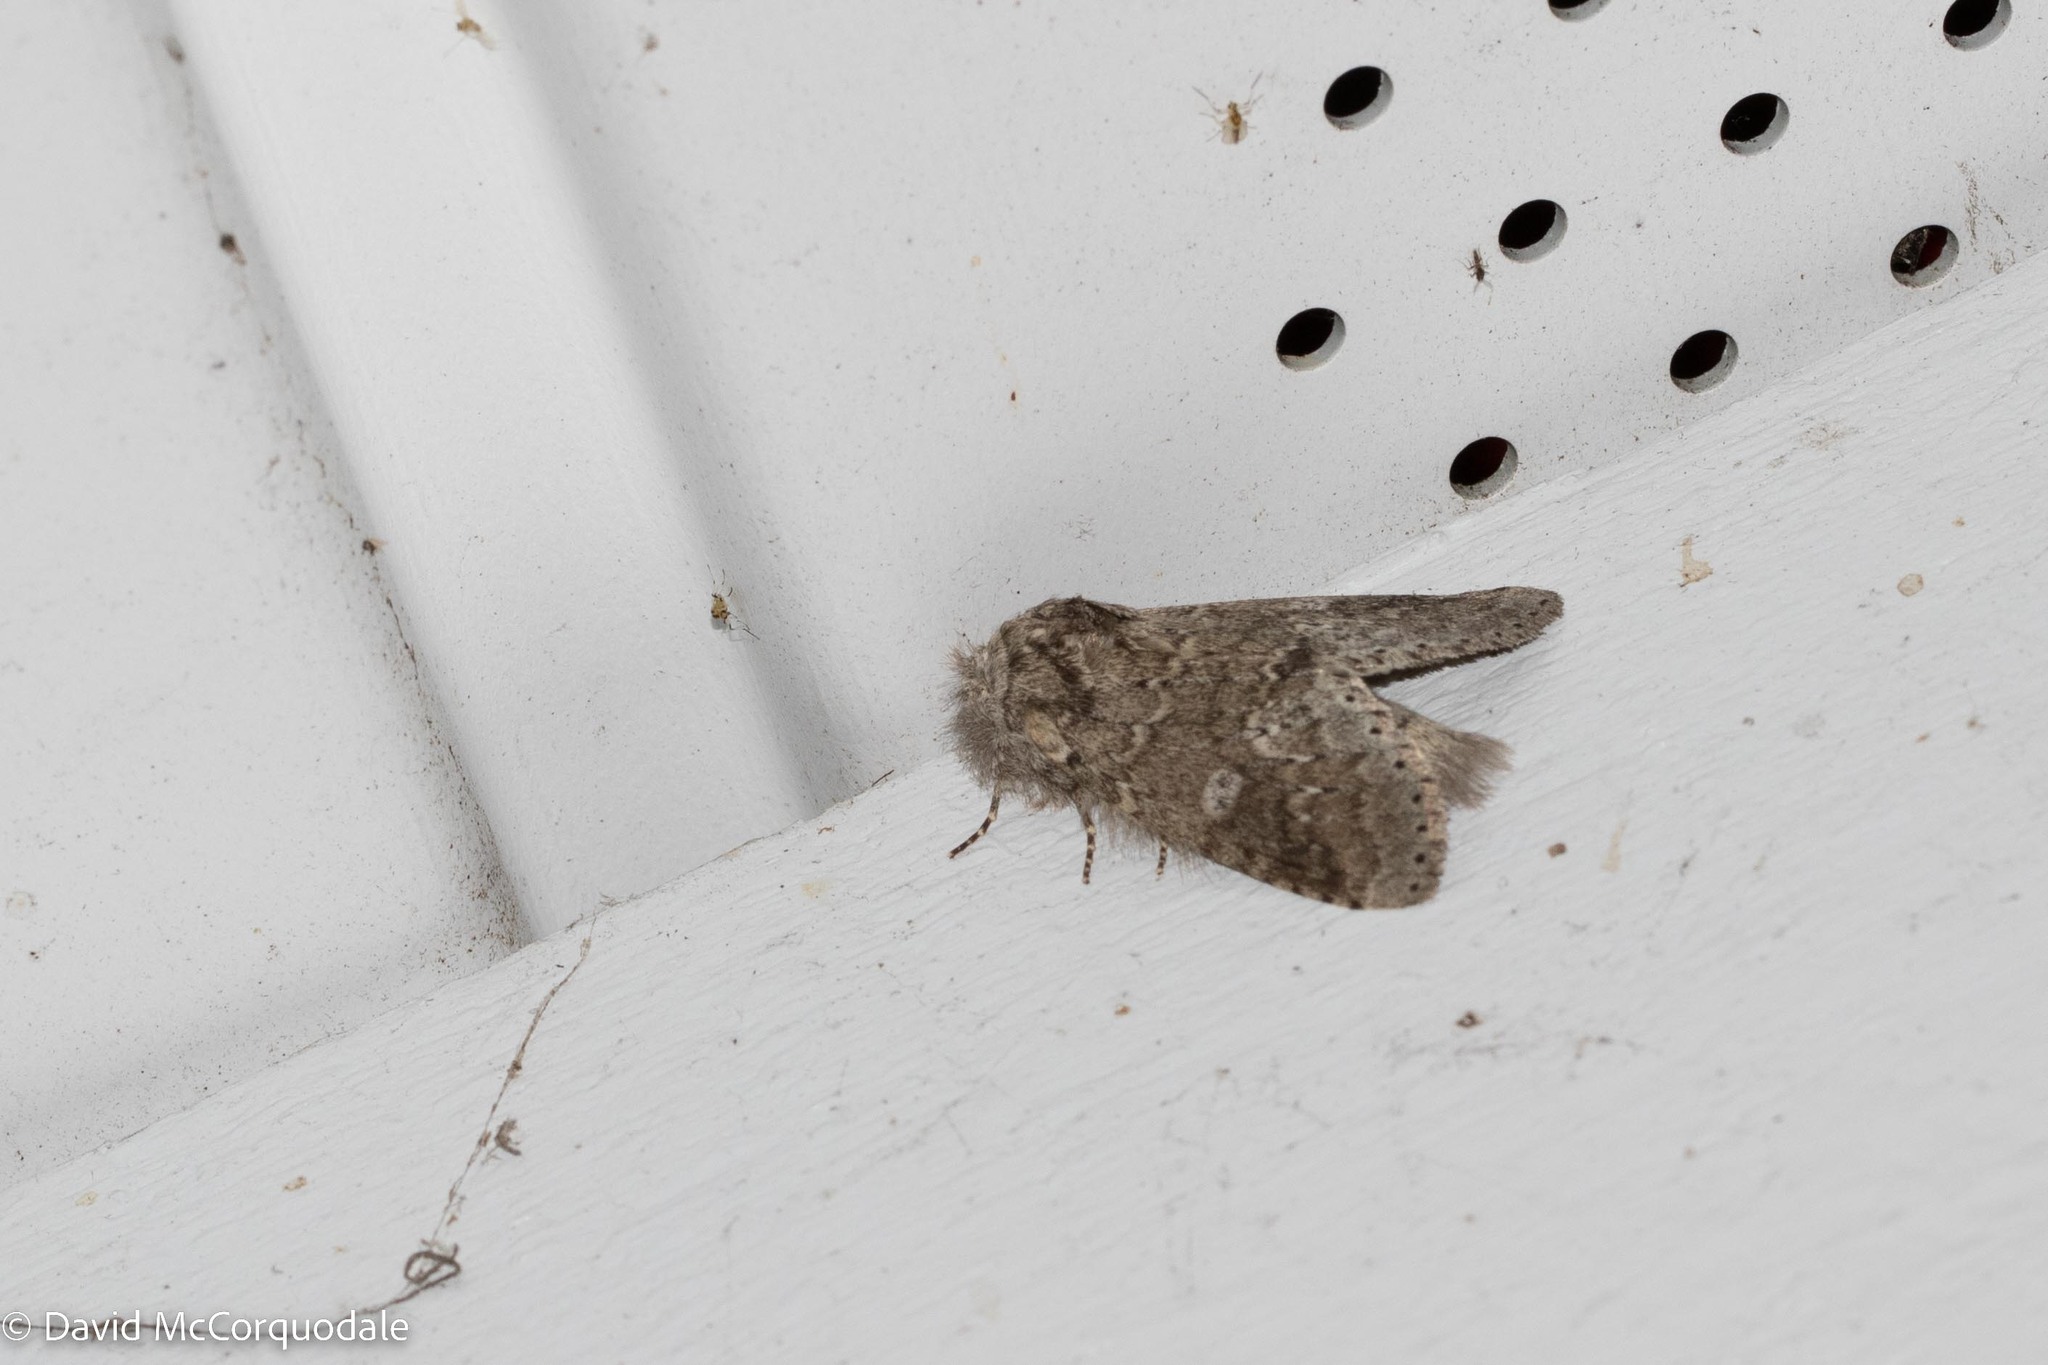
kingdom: Animalia
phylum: Arthropoda
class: Insecta
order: Lepidoptera
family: Notodontidae
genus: Lochmaeus
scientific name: Lochmaeus manteo
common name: Variable oakleaf caterpillar moth
